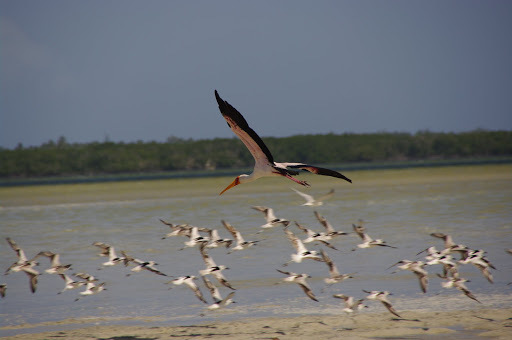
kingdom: Animalia
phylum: Chordata
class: Aves
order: Ciconiiformes
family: Ciconiidae
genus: Mycteria
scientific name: Mycteria ibis
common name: Yellow-billed stork
